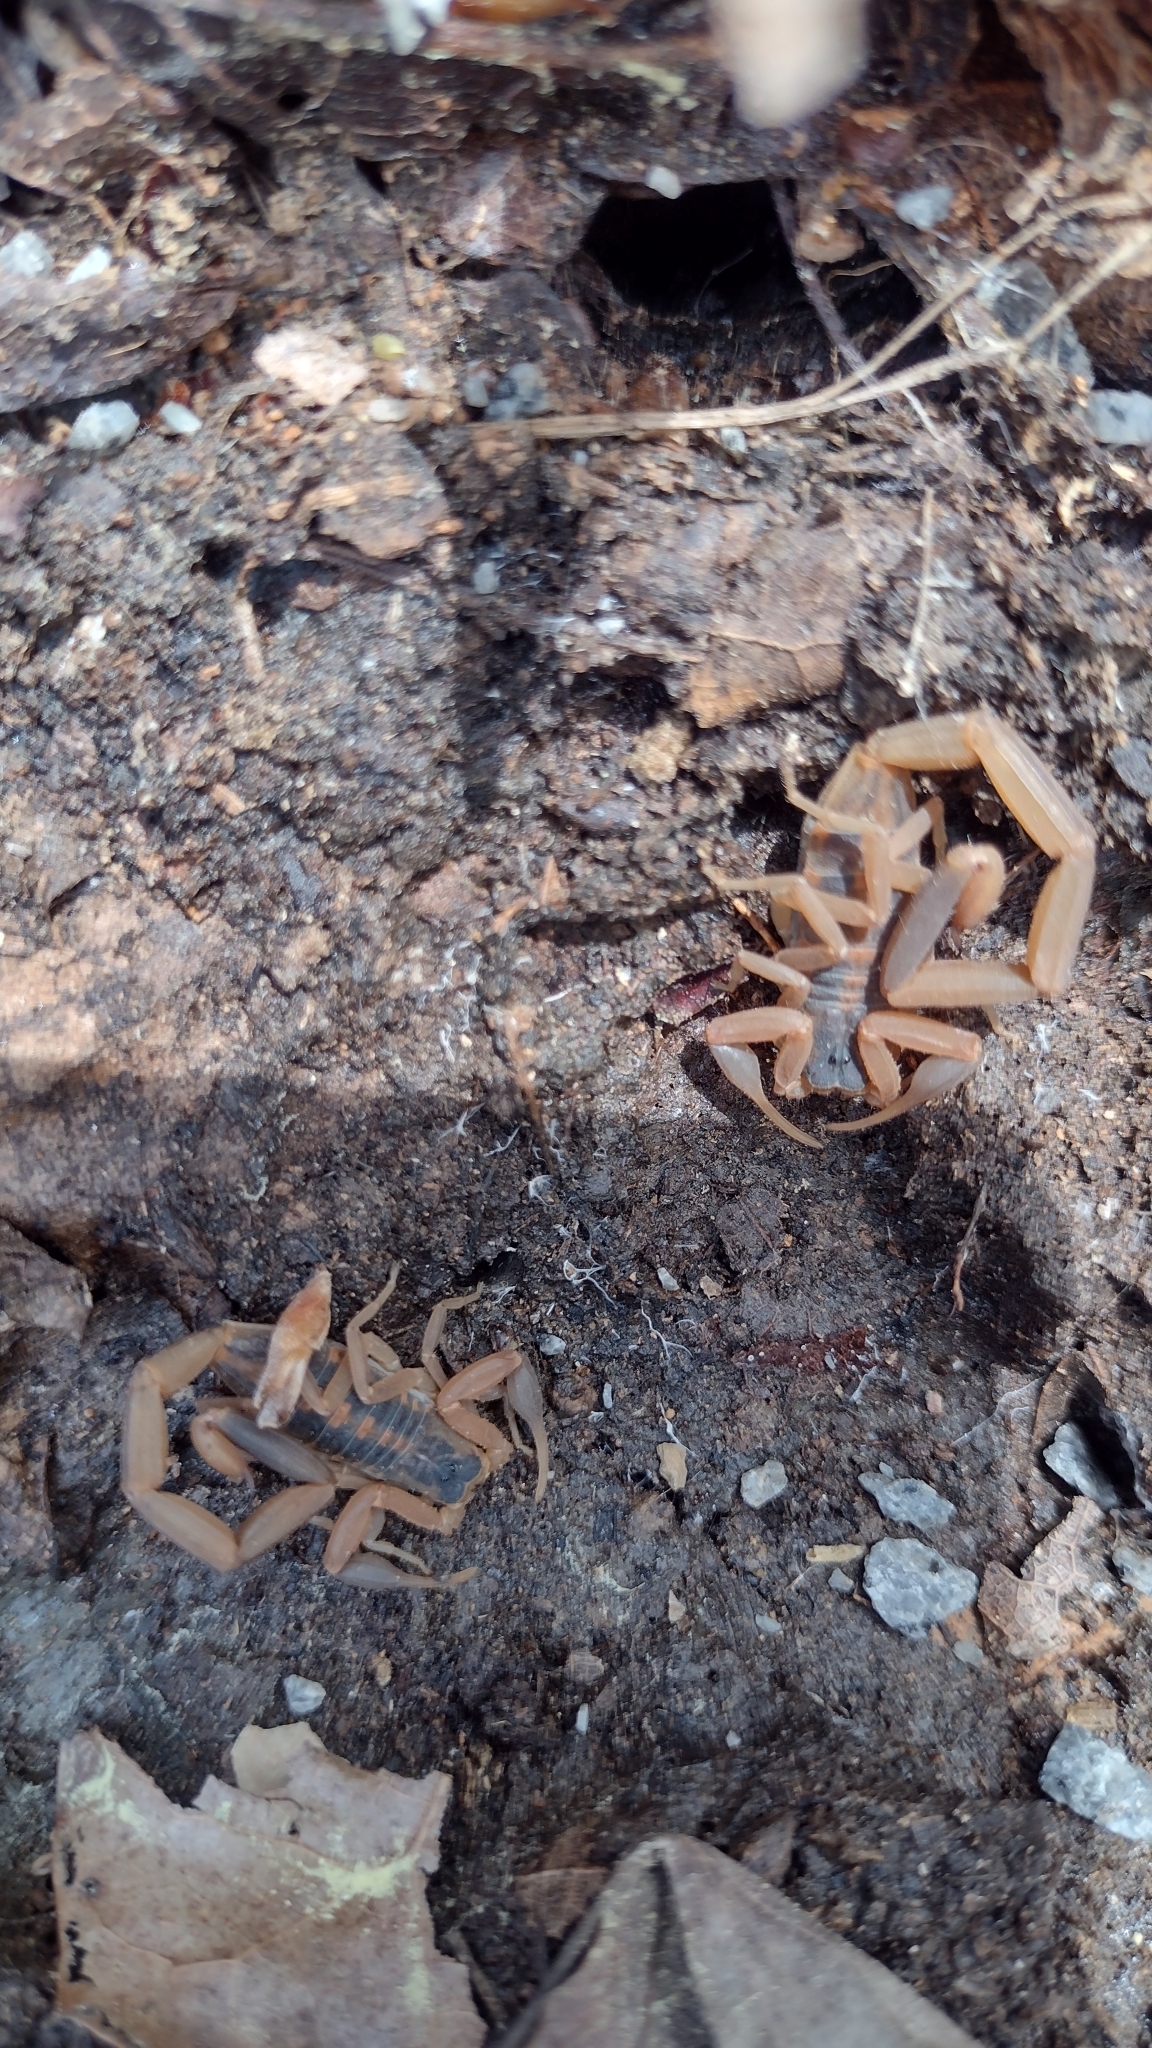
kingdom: Animalia
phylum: Arthropoda
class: Arachnida
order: Scorpiones
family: Buthidae
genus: Centruroides
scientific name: Centruroides vittatus
